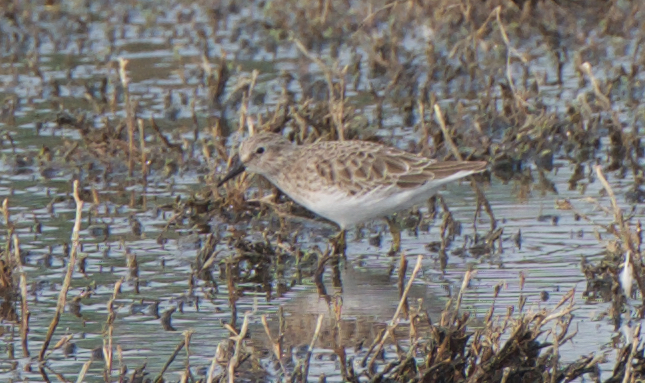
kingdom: Animalia
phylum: Chordata
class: Aves
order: Charadriiformes
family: Scolopacidae
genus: Calidris
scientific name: Calidris minutilla
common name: Least sandpiper
